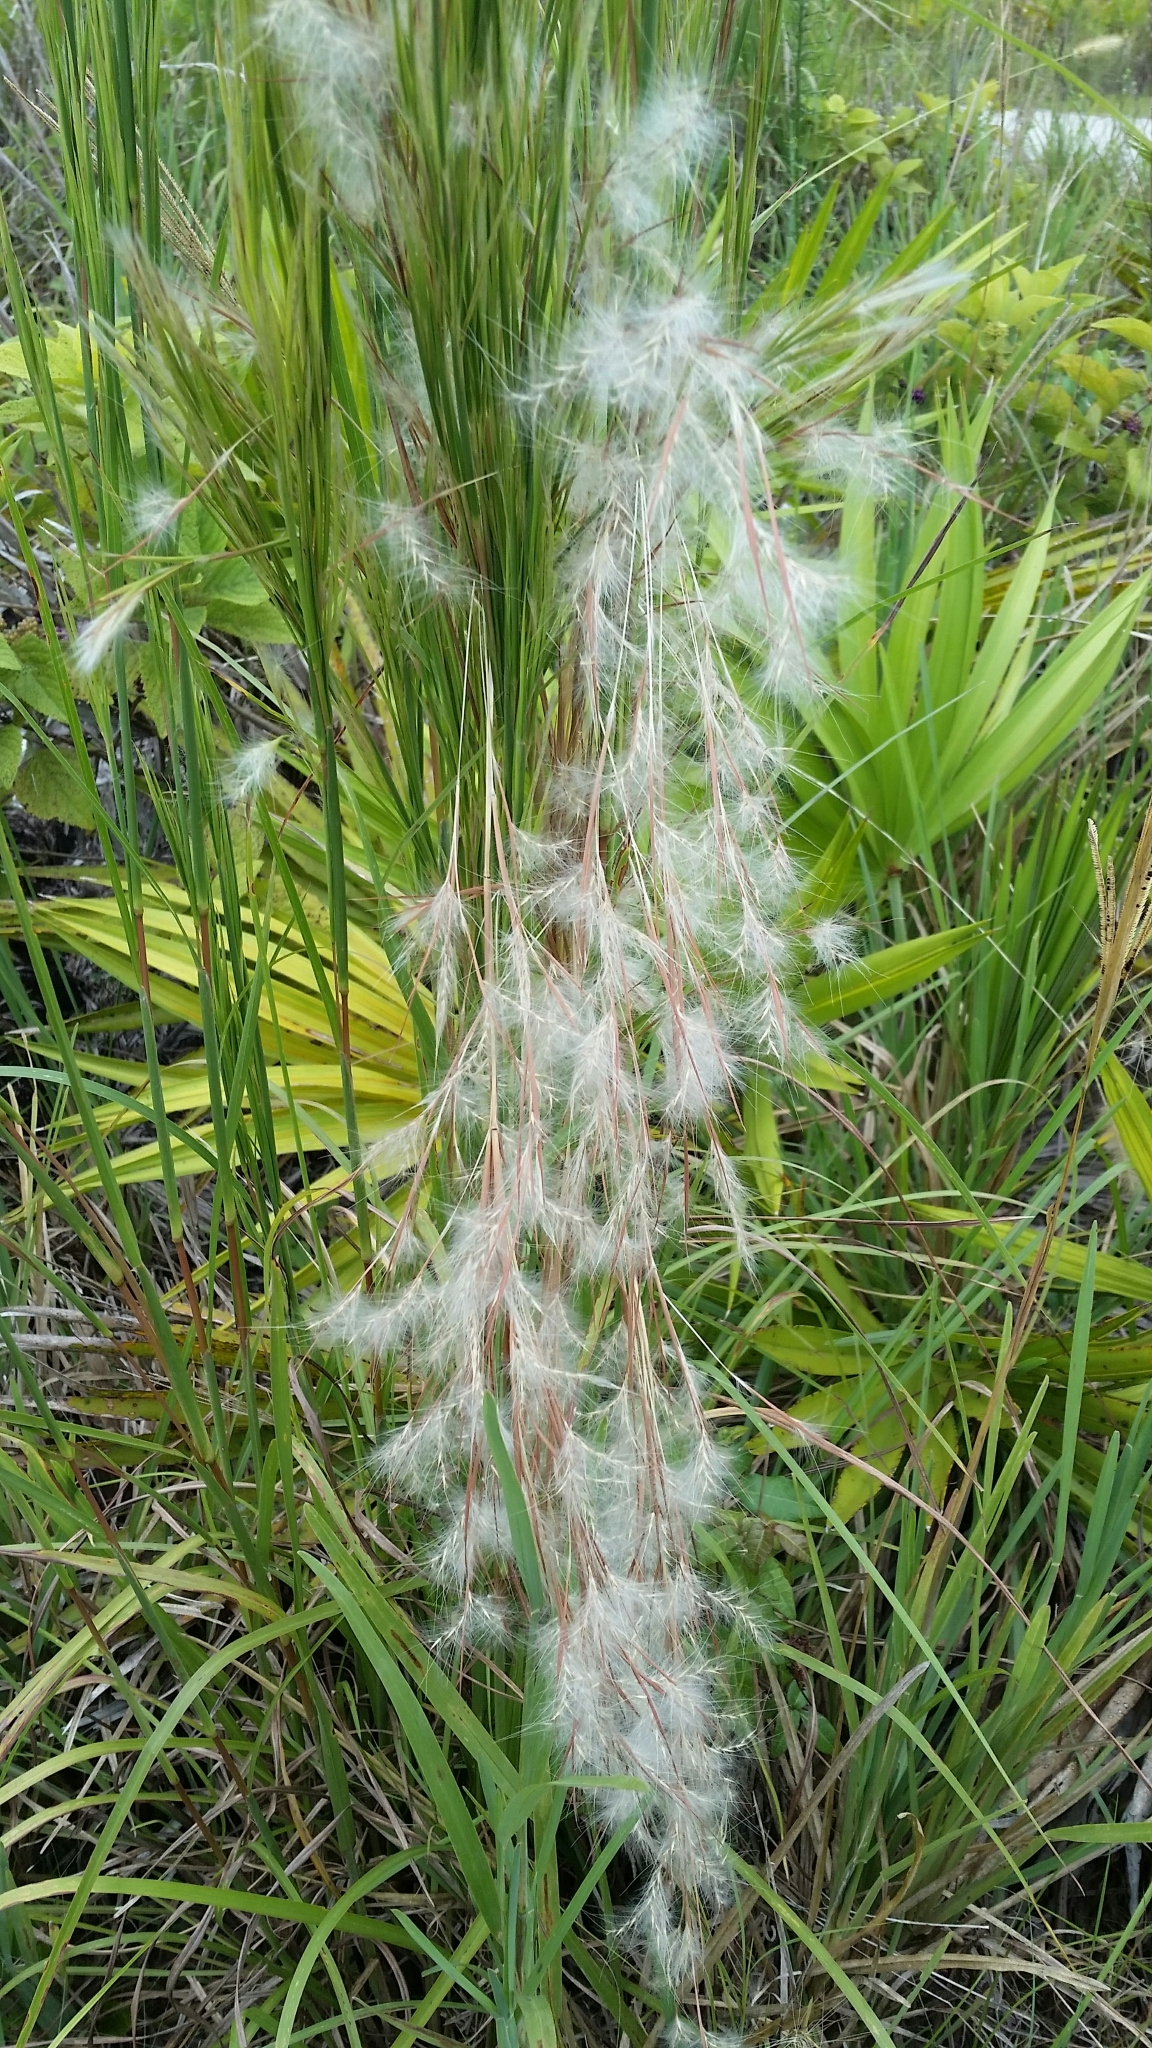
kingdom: Plantae
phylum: Tracheophyta
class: Liliopsida
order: Poales
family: Poaceae
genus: Andropogon
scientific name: Andropogon tenuispatheus
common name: Bushy bluestem
